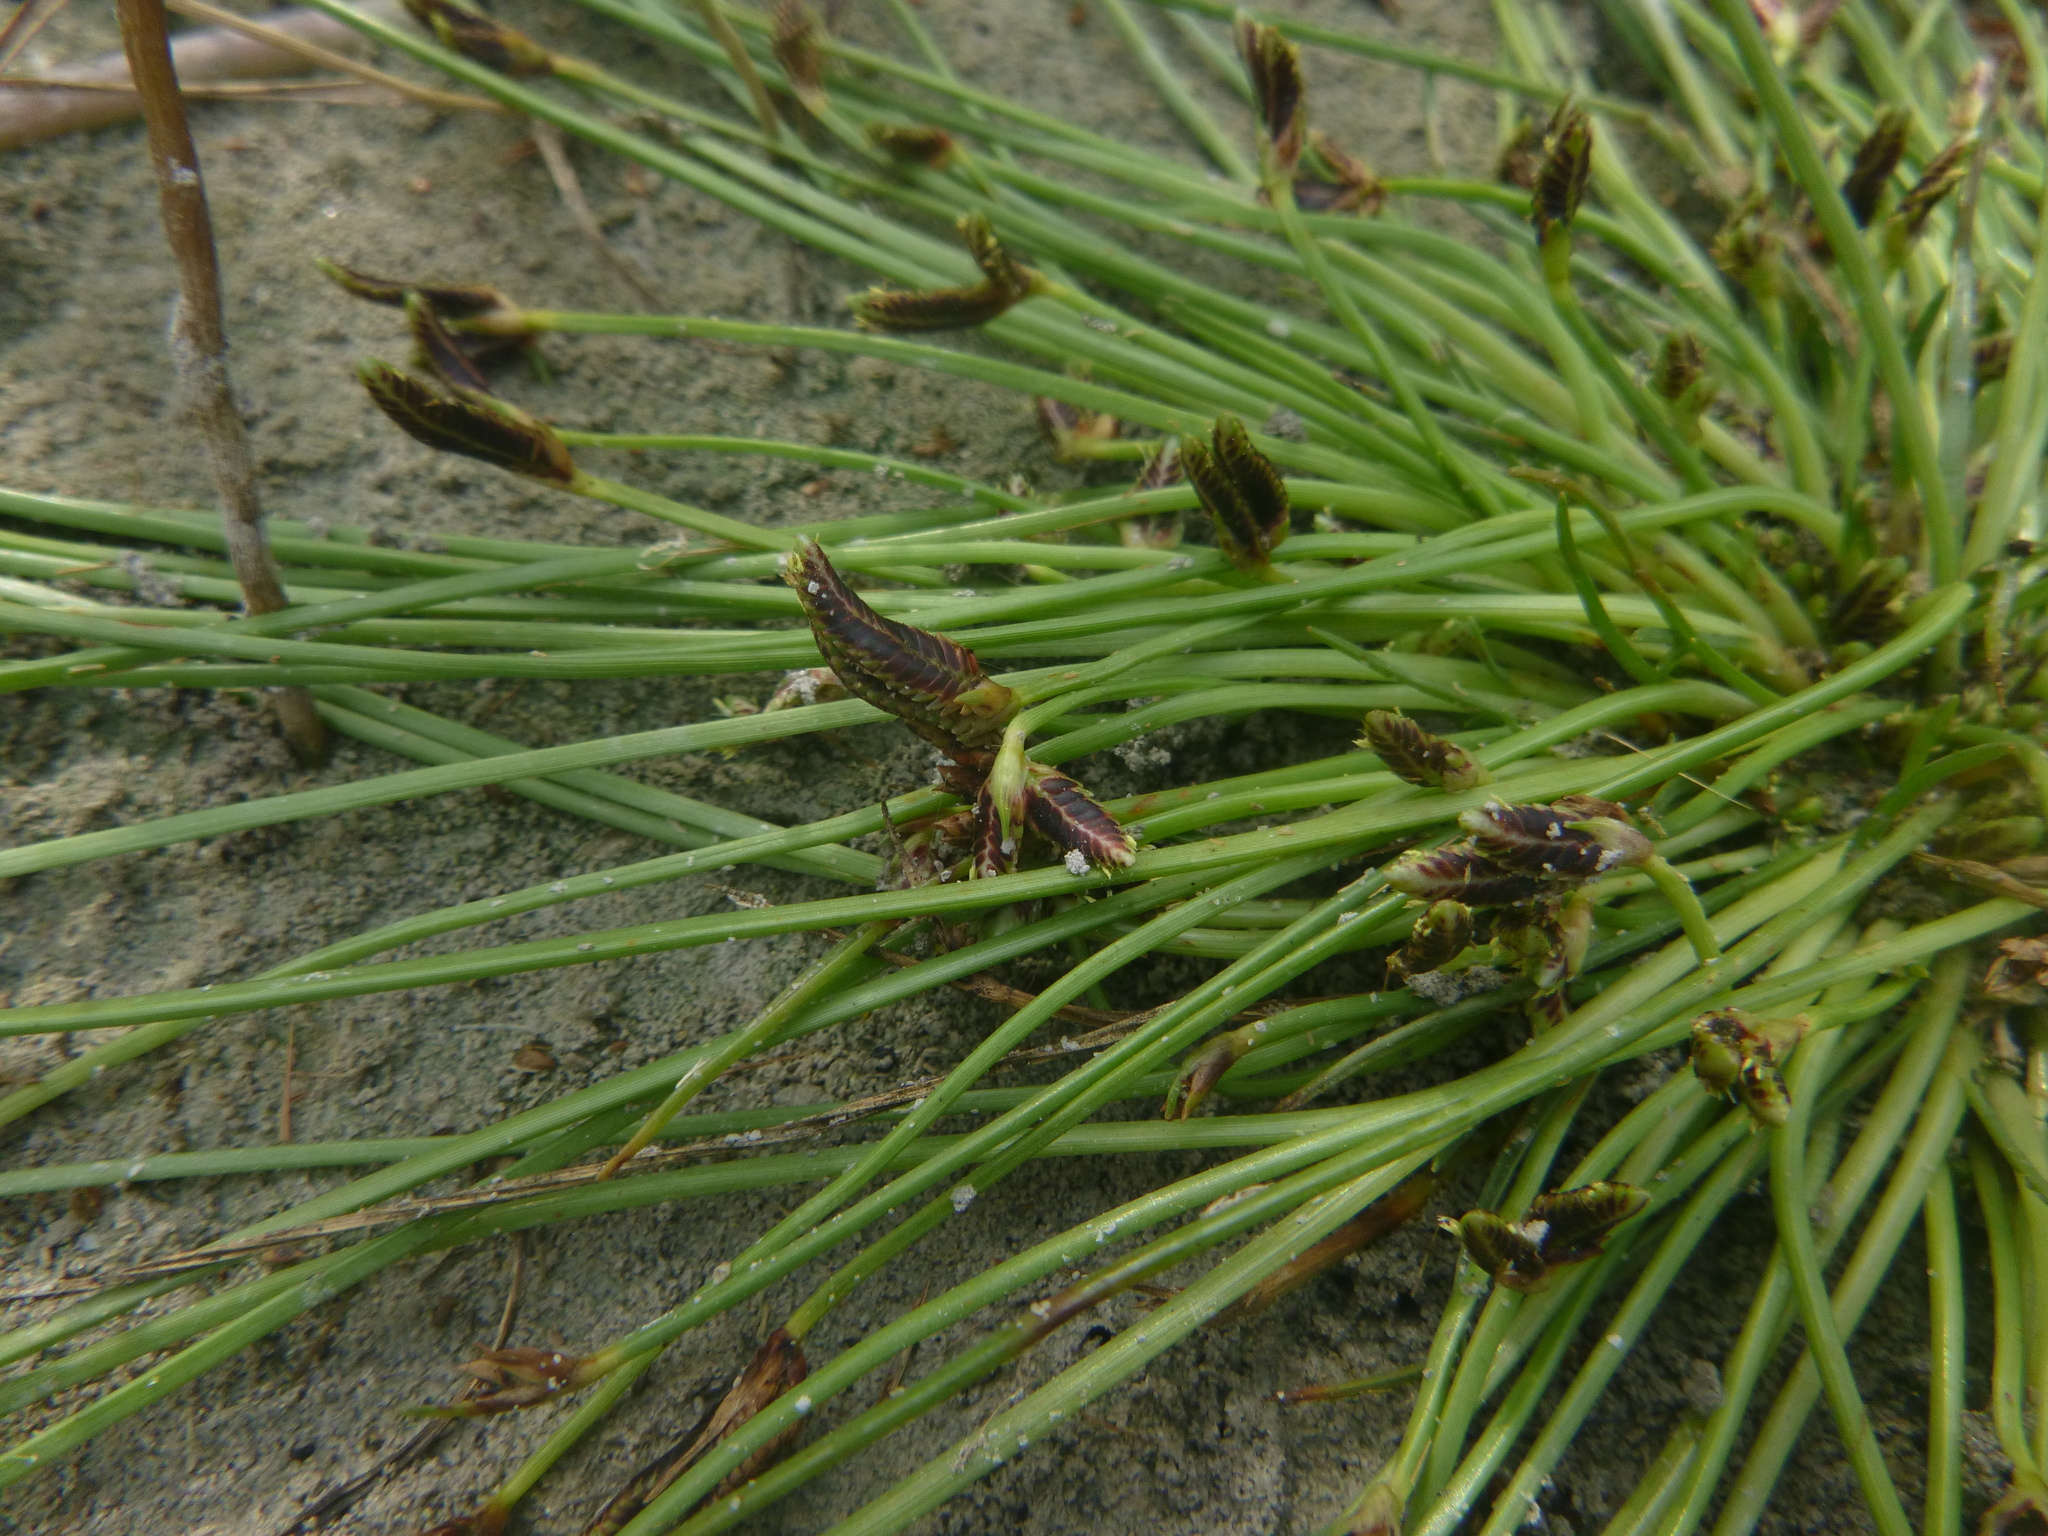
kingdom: Plantae
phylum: Tracheophyta
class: Liliopsida
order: Poales
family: Cyperaceae
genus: Cyperus
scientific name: Cyperus pannonicus
